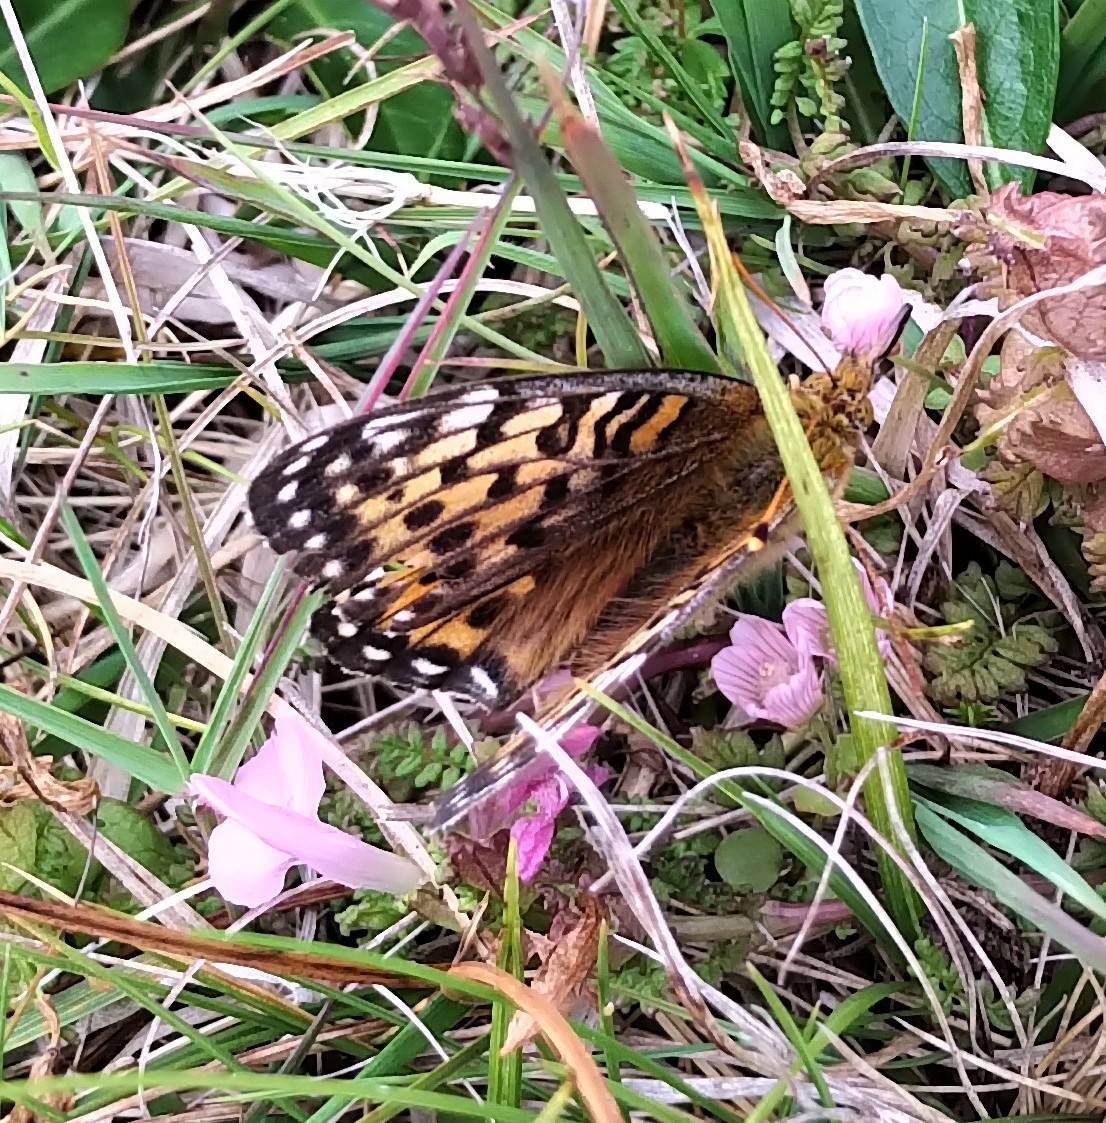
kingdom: Animalia
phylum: Arthropoda
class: Insecta
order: Lepidoptera
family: Nymphalidae
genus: Speyeria
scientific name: Speyeria aglaja
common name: Dark green fritillary
